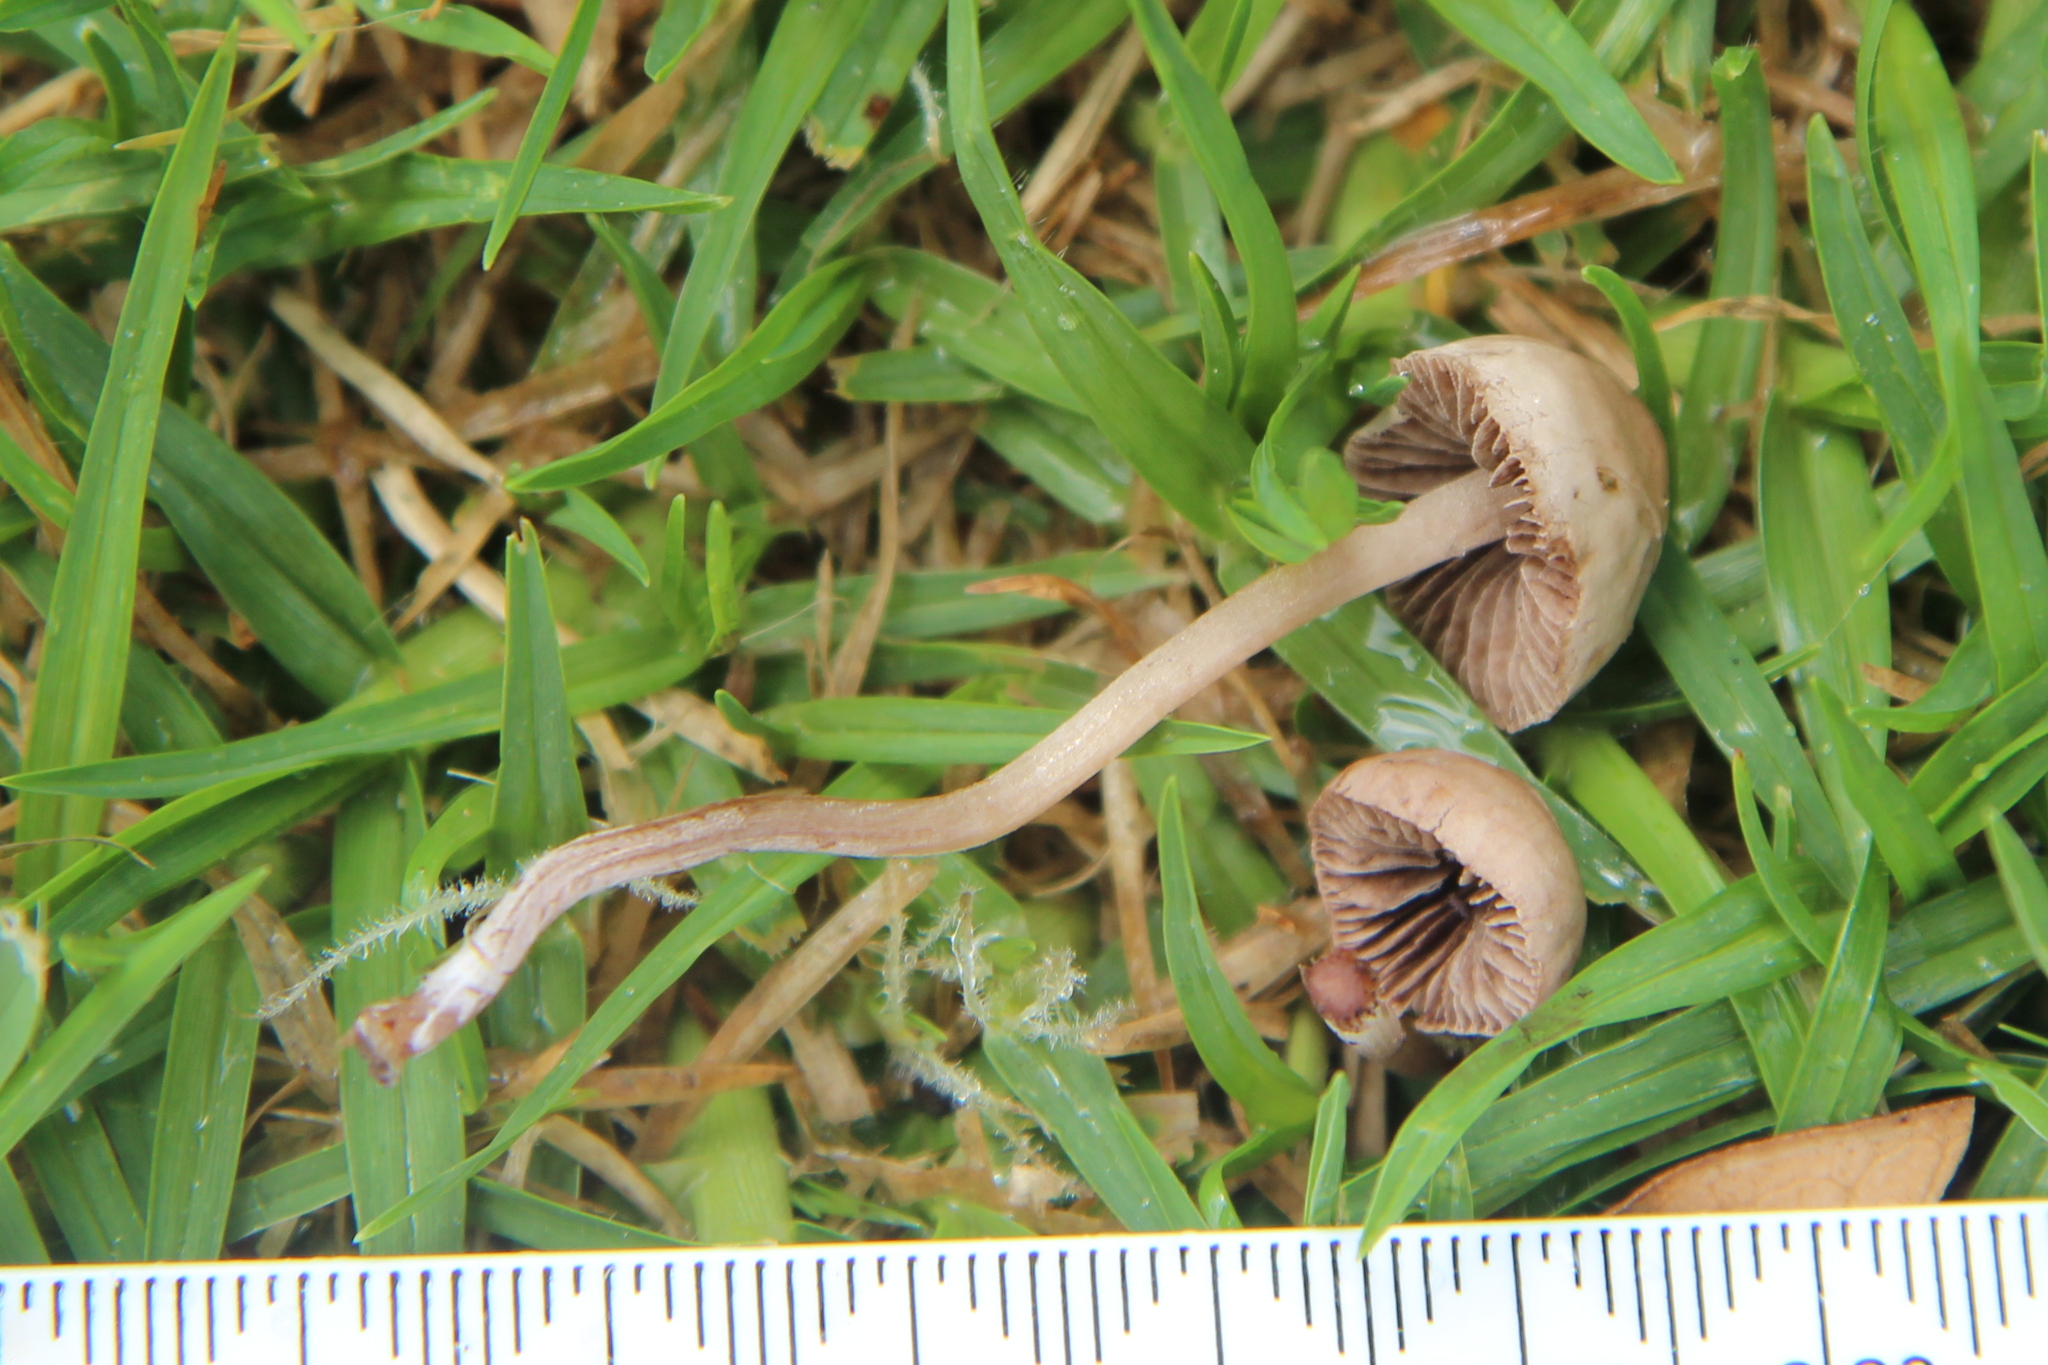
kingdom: Fungi
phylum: Basidiomycota
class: Agaricomycetes
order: Agaricales
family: Bolbitiaceae
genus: Panaeolina
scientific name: Panaeolina foenisecii
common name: Brown hay cap
